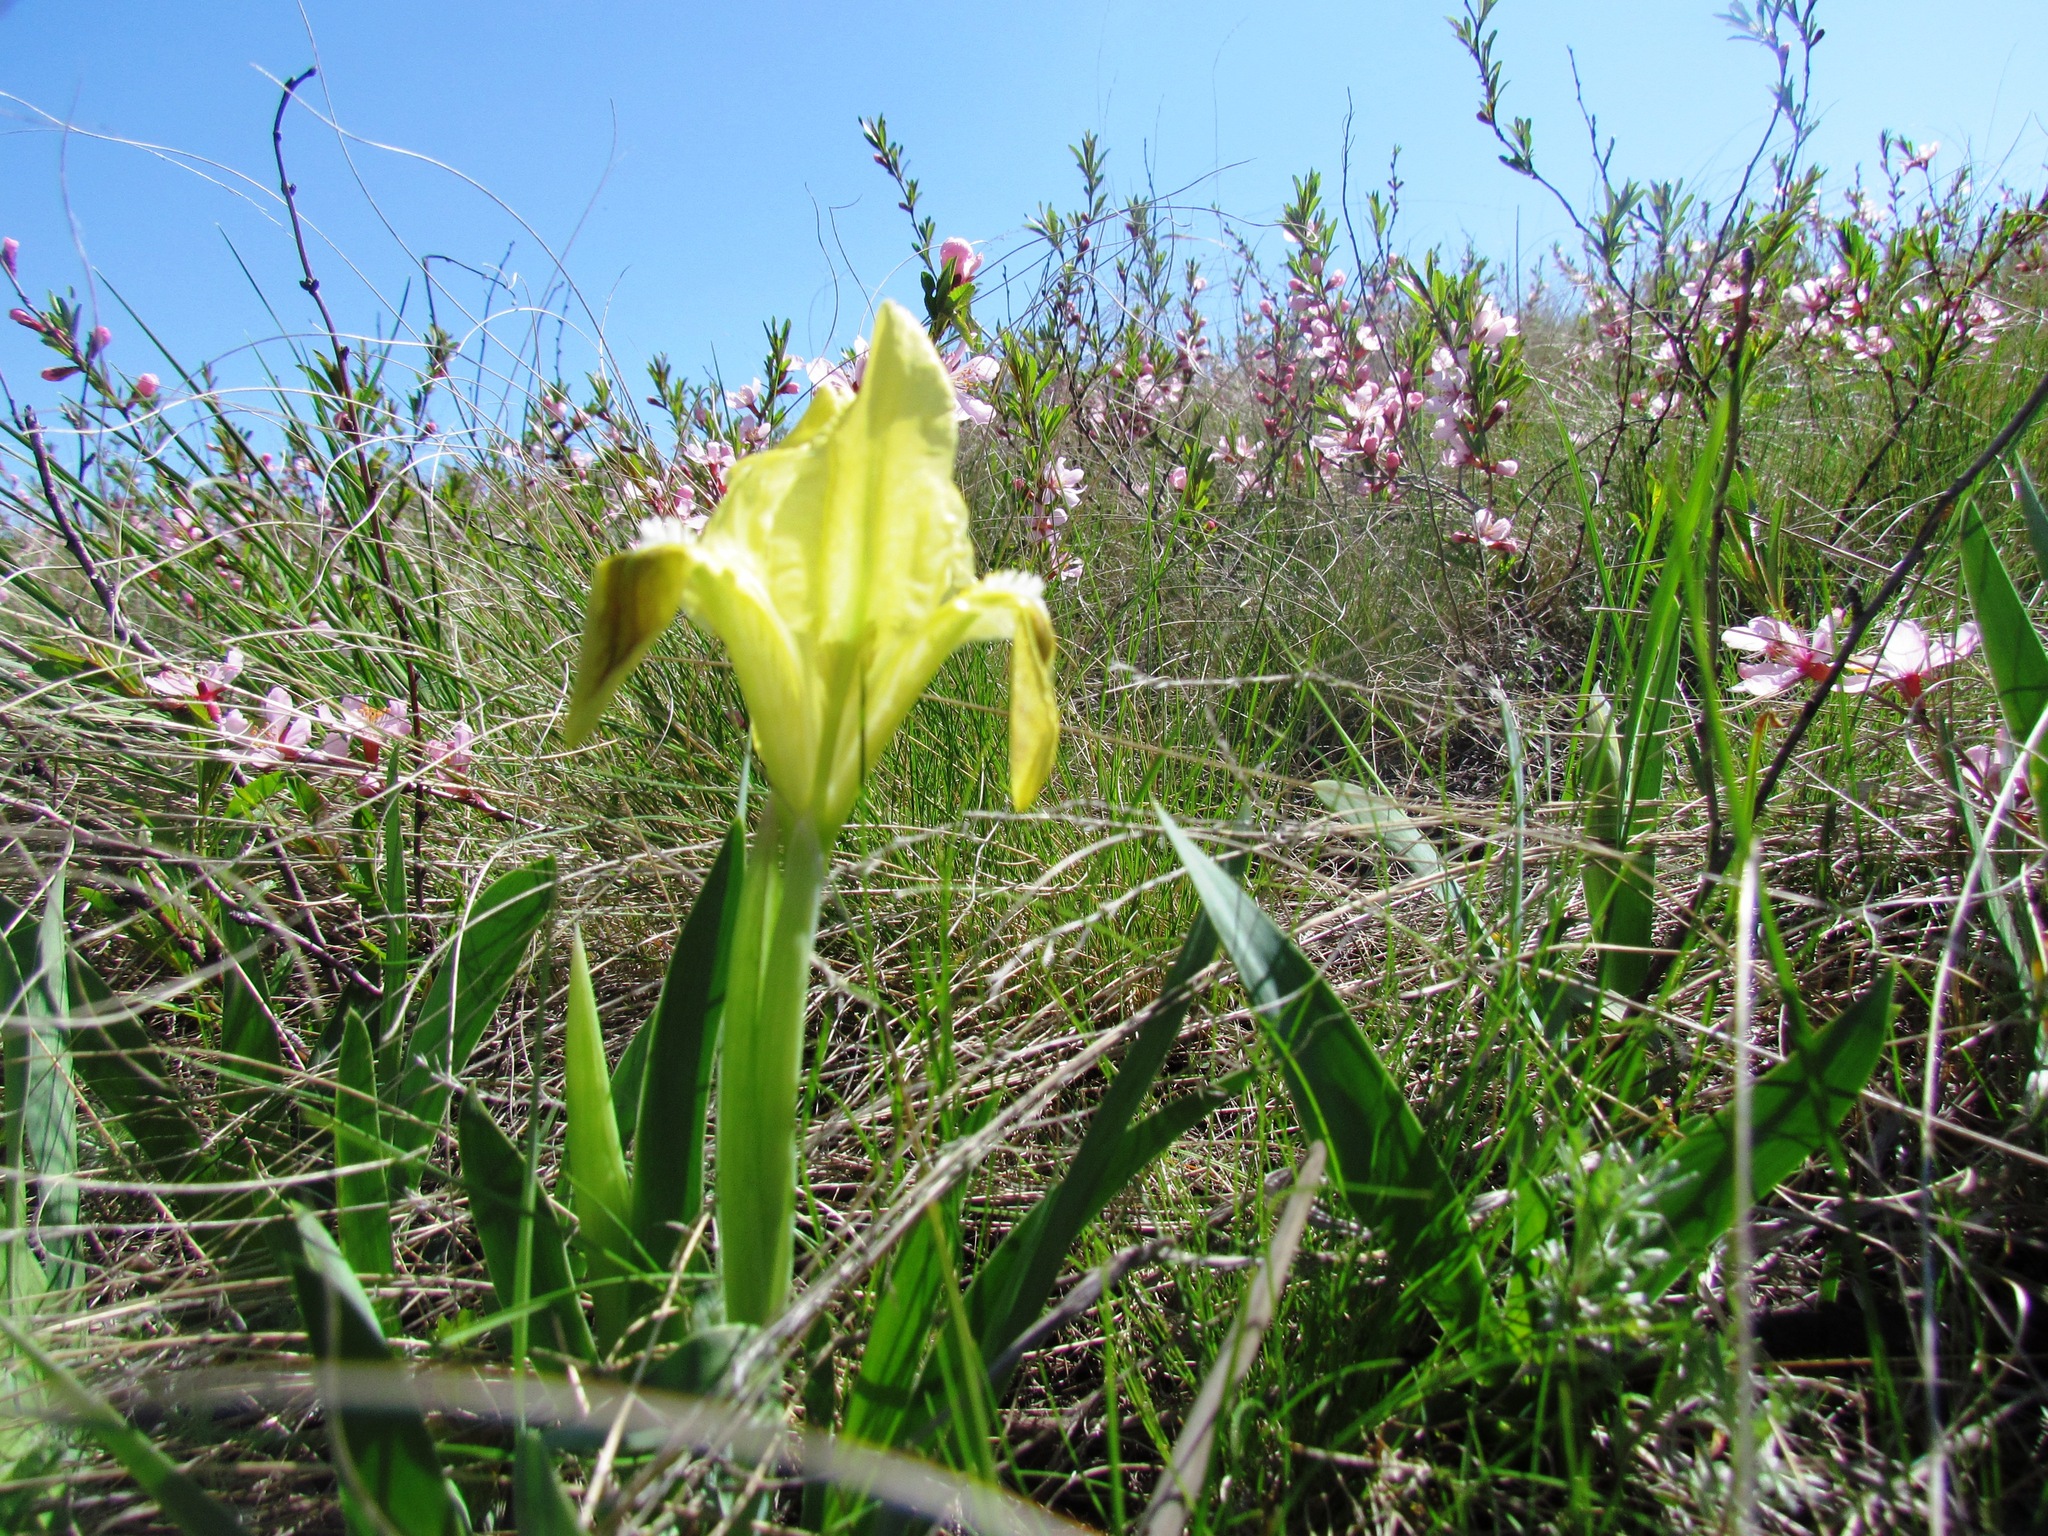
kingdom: Plantae
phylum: Tracheophyta
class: Liliopsida
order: Asparagales
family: Iridaceae
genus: Iris
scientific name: Iris pumila
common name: Dwarf iris
